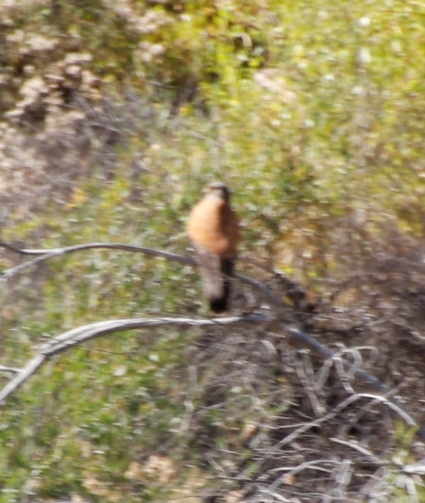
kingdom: Animalia
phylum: Chordata
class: Aves
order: Falconiformes
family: Falconidae
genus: Falco
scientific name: Falco rupicolus
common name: Rock kestrel
